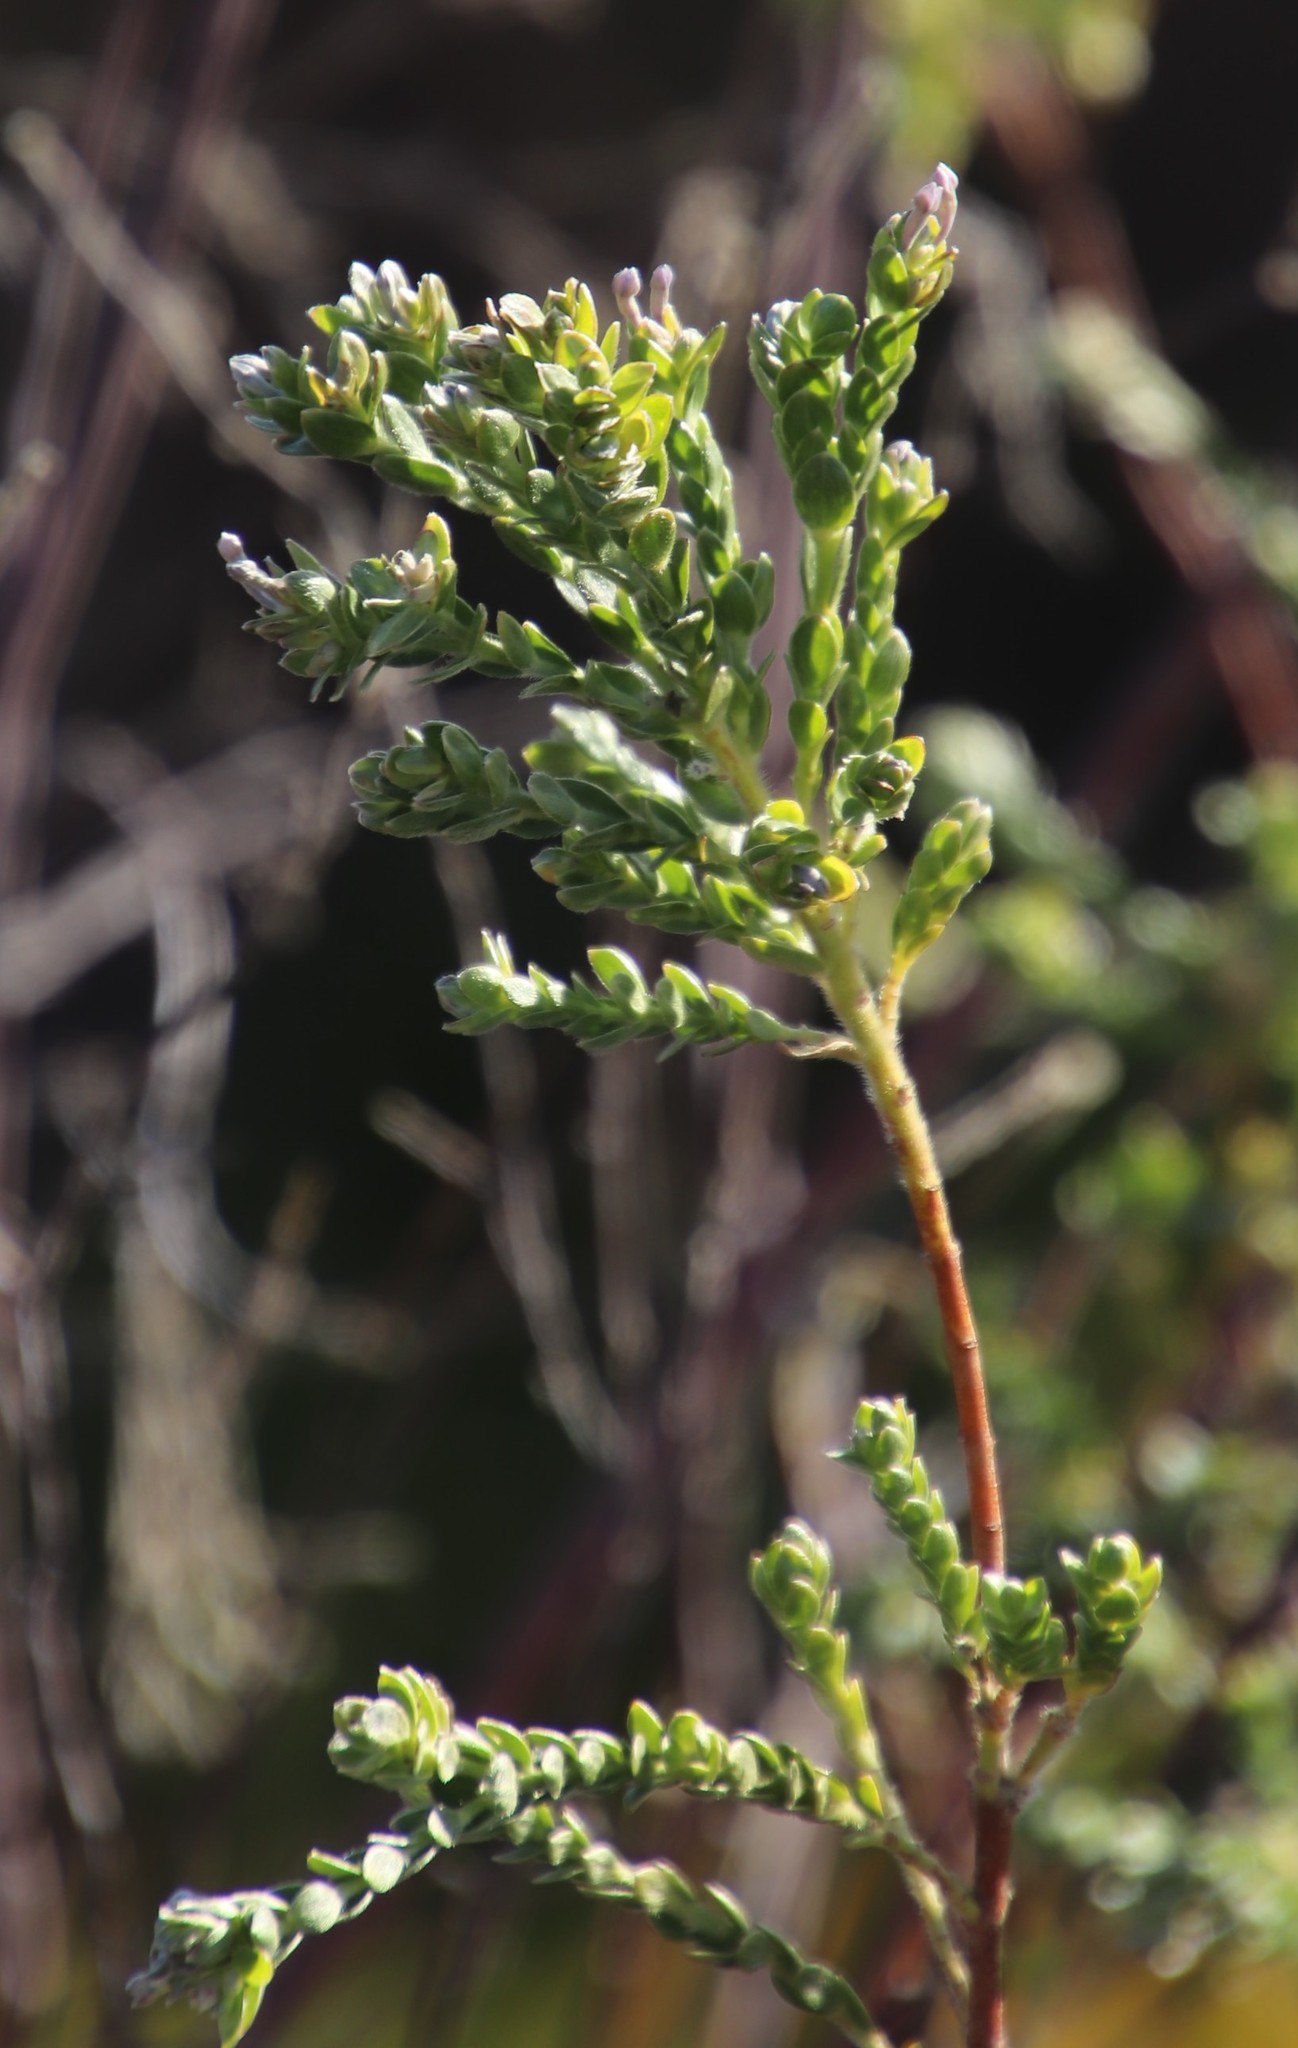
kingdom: Plantae
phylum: Tracheophyta
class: Magnoliopsida
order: Malvales
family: Thymelaeaceae
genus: Gnidia
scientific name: Gnidia sericea
